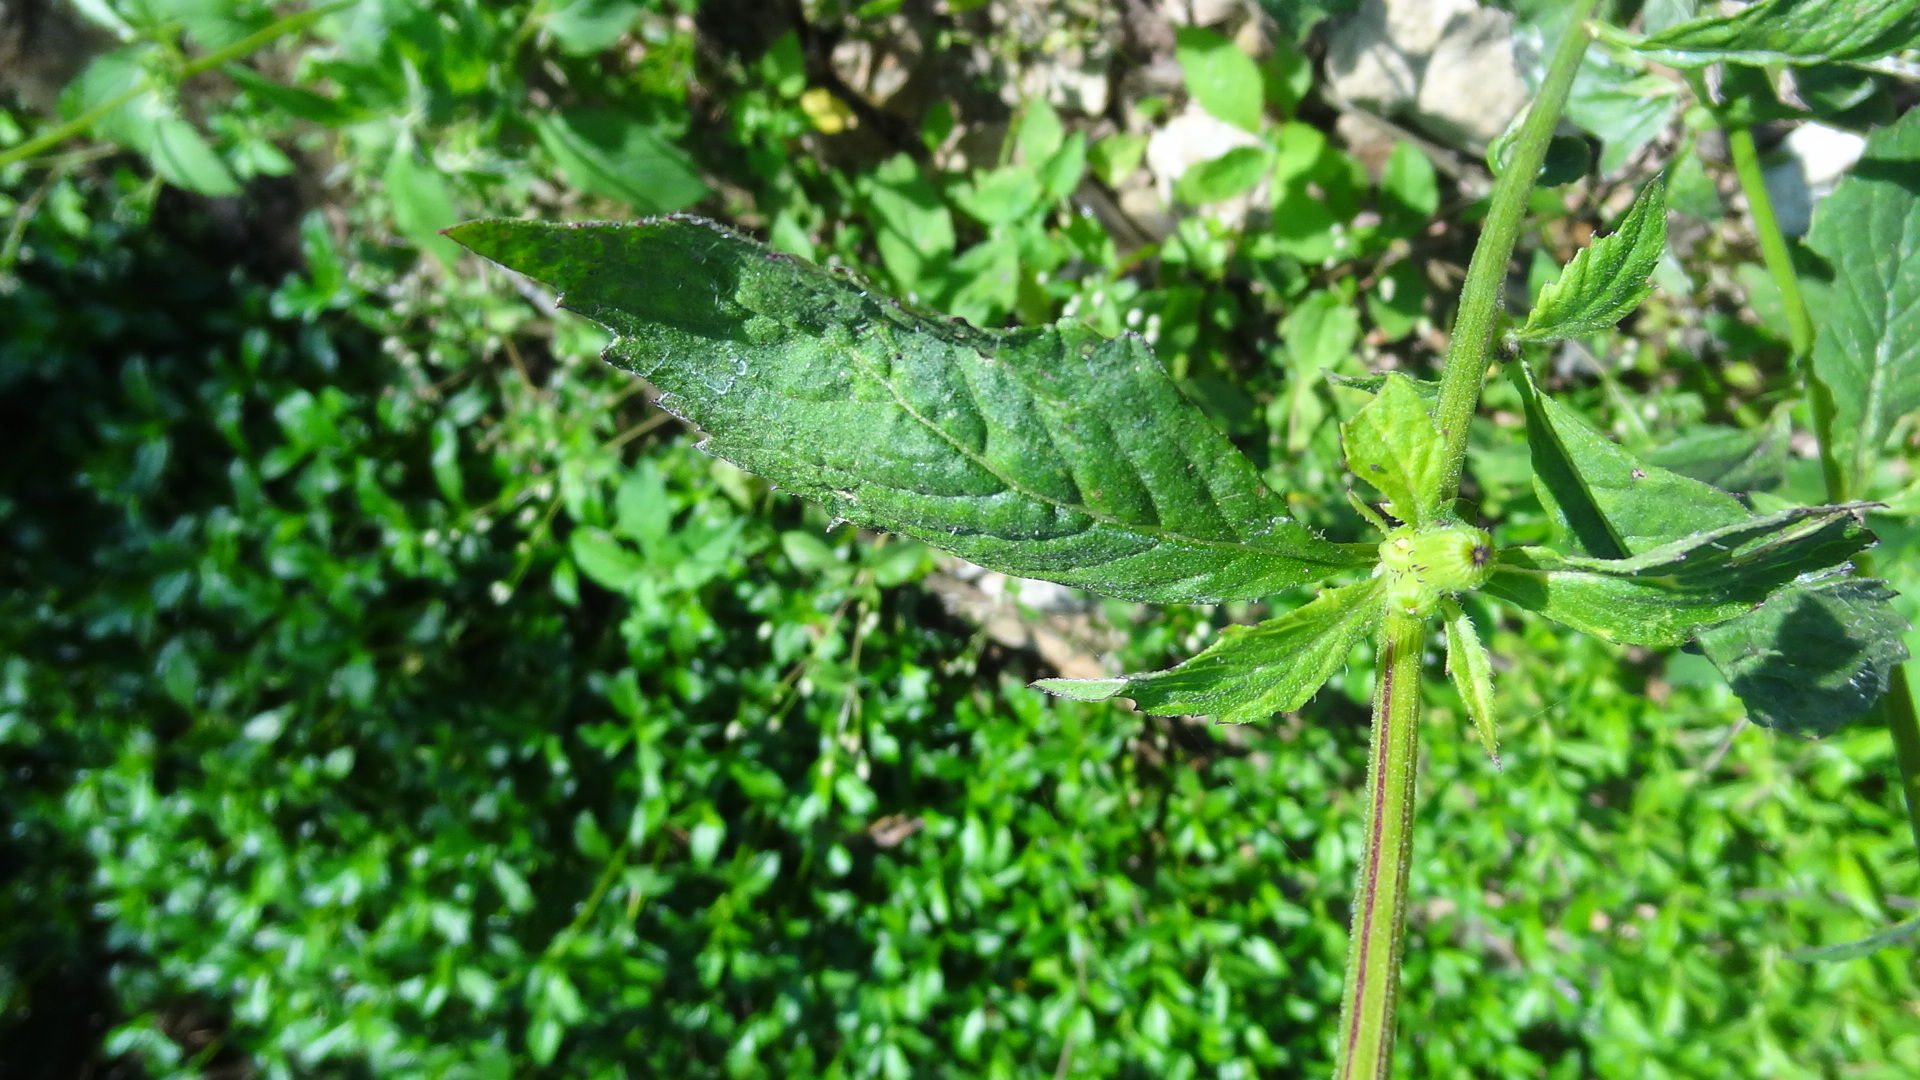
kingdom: Plantae
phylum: Tracheophyta
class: Magnoliopsida
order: Asterales
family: Asteraceae
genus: Crassocephalum
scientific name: Crassocephalum crepidioides
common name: Redflower ragleaf
